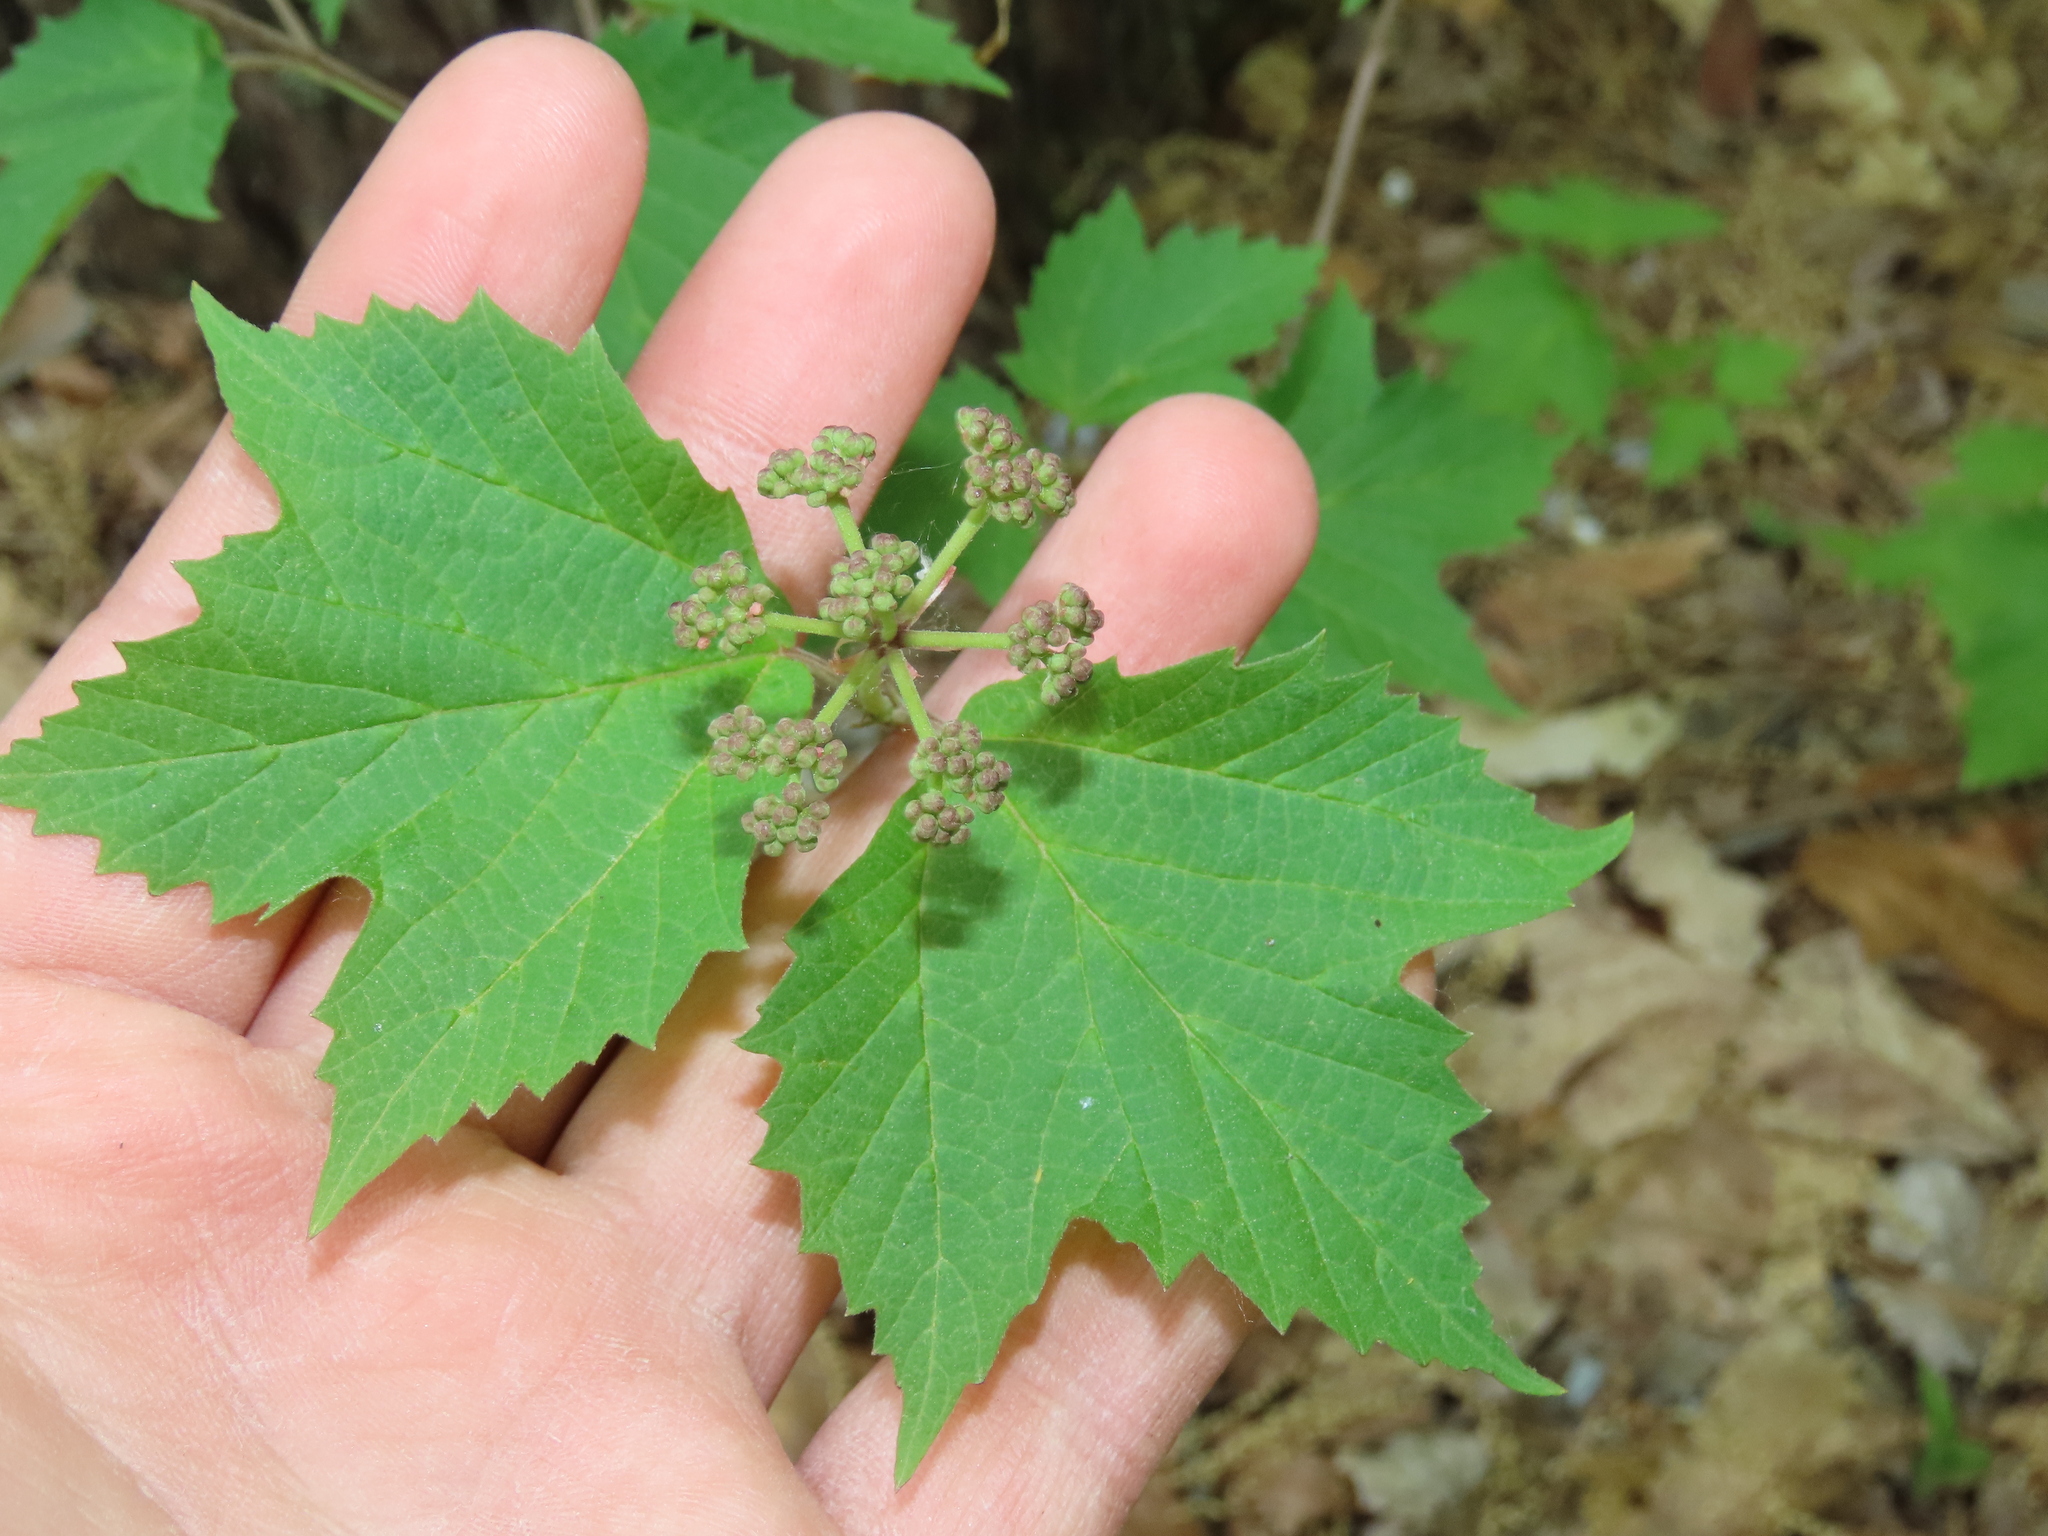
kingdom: Plantae
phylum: Tracheophyta
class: Magnoliopsida
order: Dipsacales
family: Viburnaceae
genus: Viburnum
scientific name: Viburnum acerifolium
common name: Dockmackie
